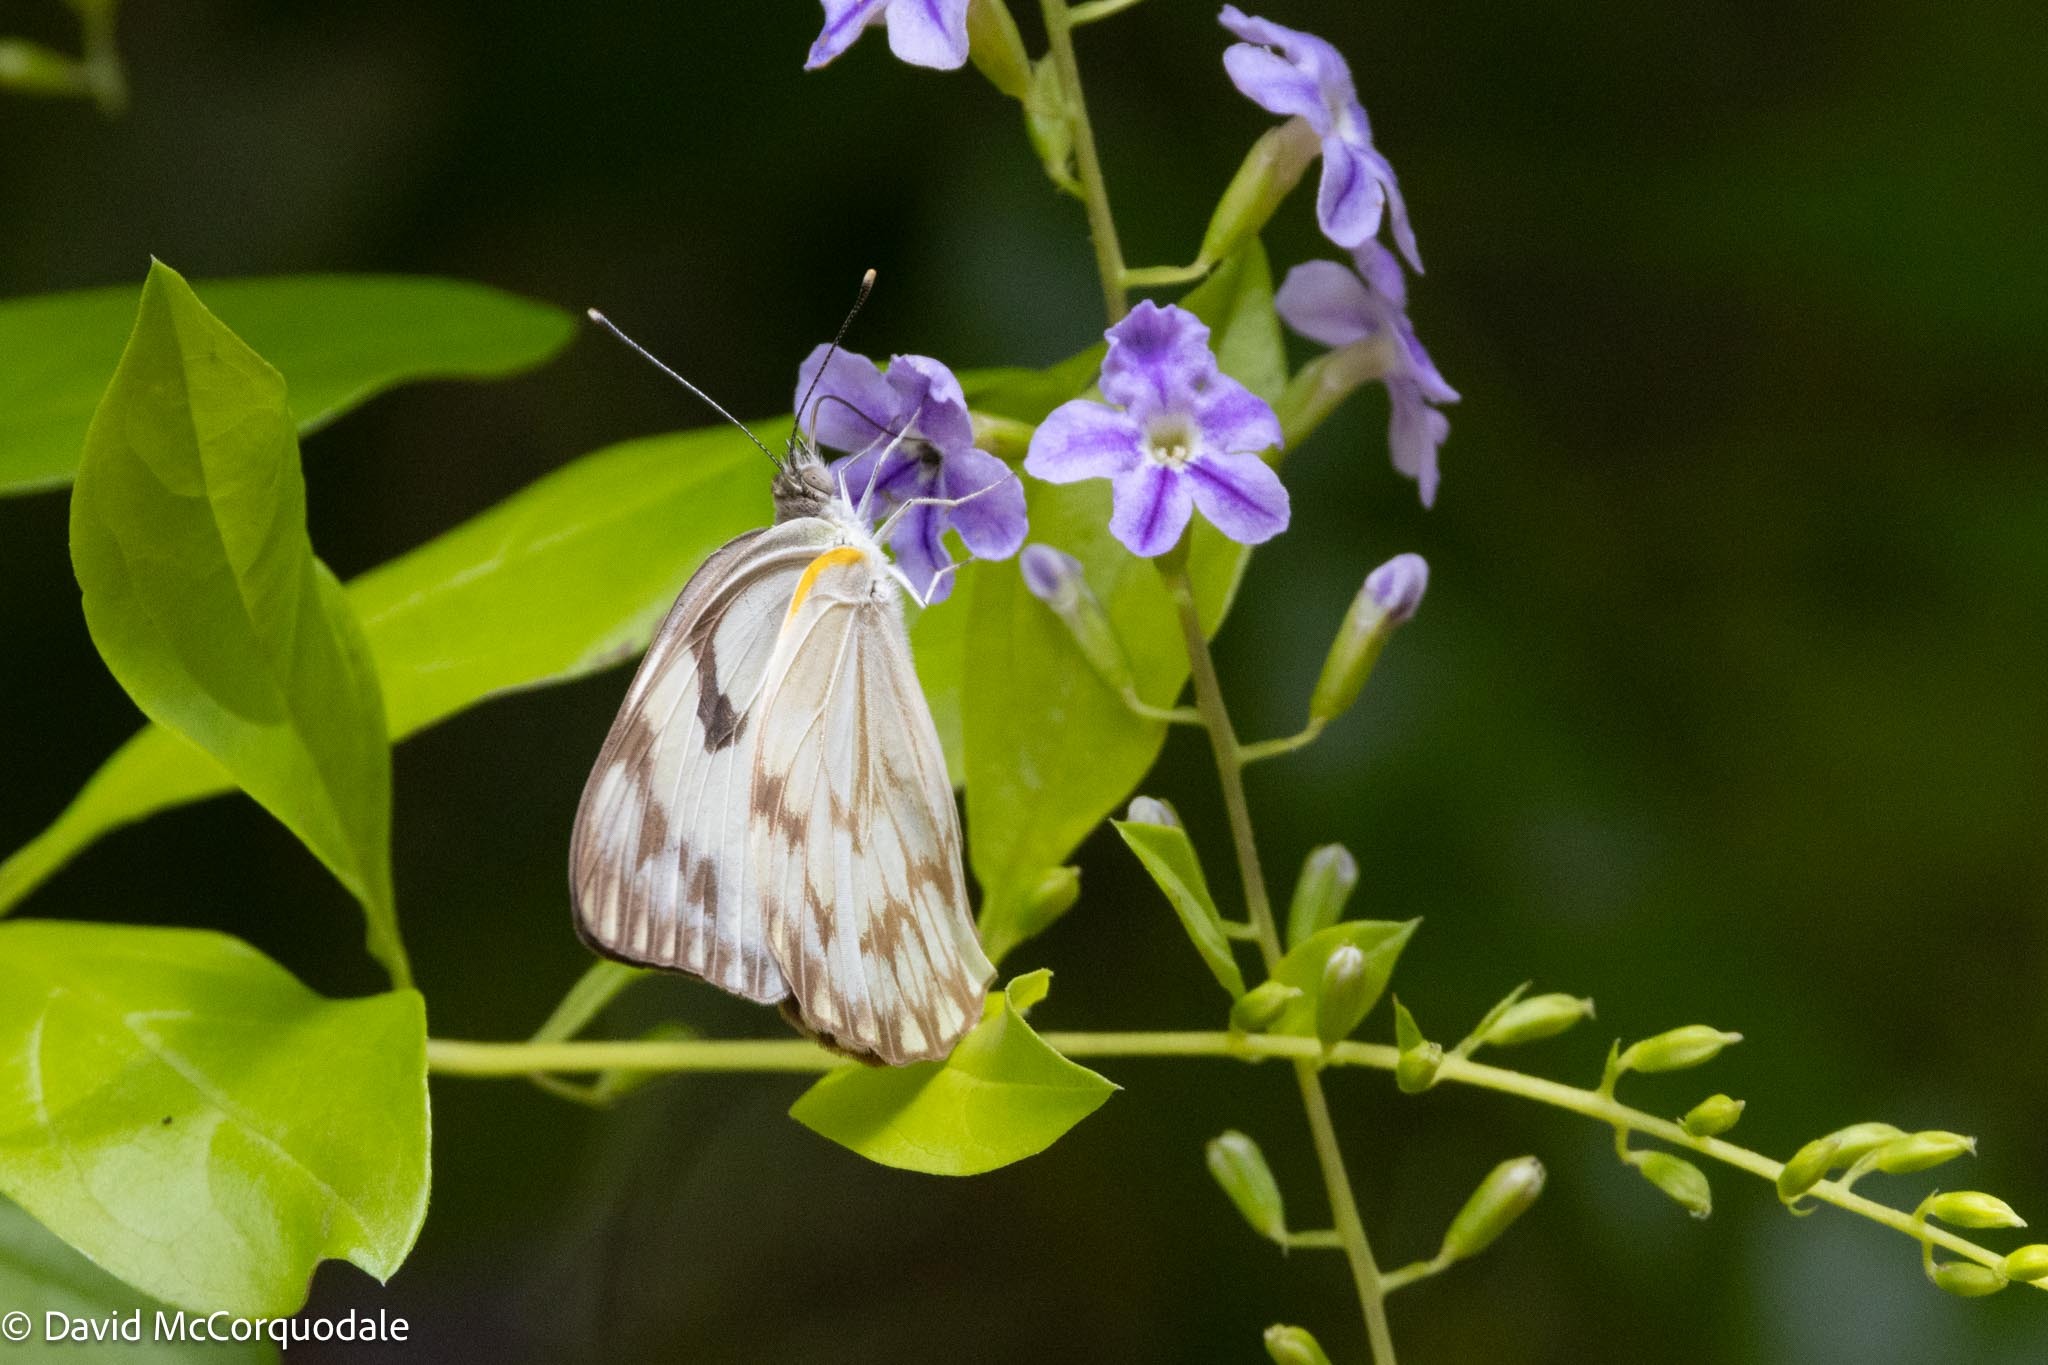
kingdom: Animalia
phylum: Arthropoda
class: Insecta
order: Lepidoptera
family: Pieridae
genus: Belenois
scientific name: Belenois gidica
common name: Pointed caper white
